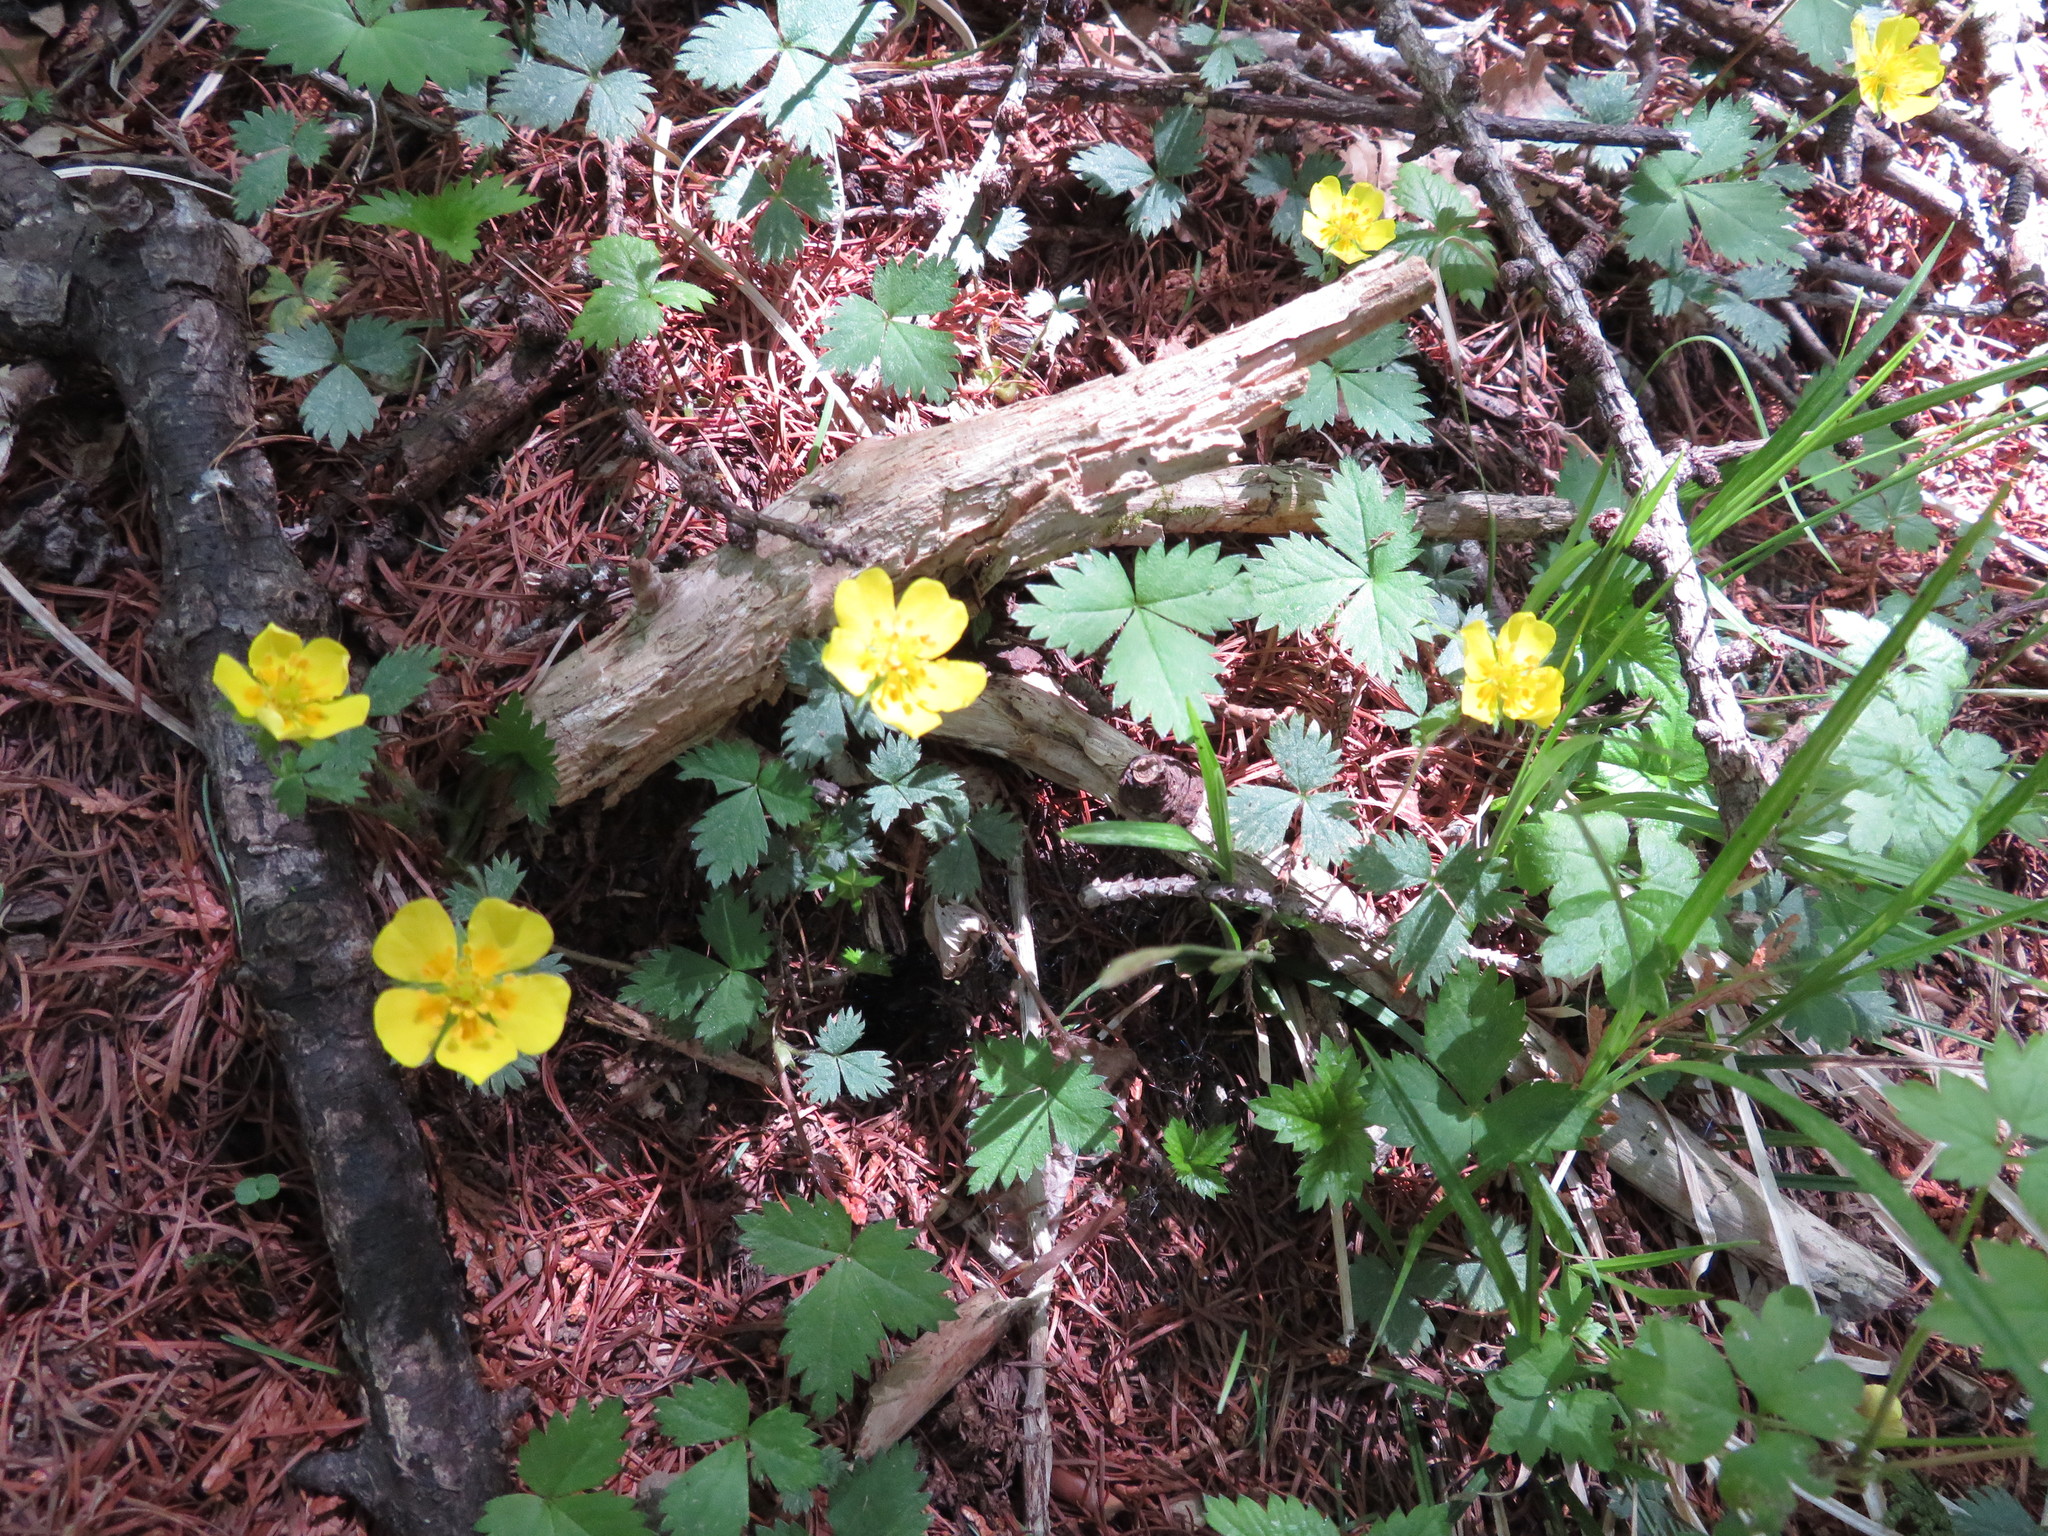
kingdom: Plantae
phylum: Tracheophyta
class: Magnoliopsida
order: Rosales
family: Rosaceae
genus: Potentilla
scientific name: Potentilla rosulifera
